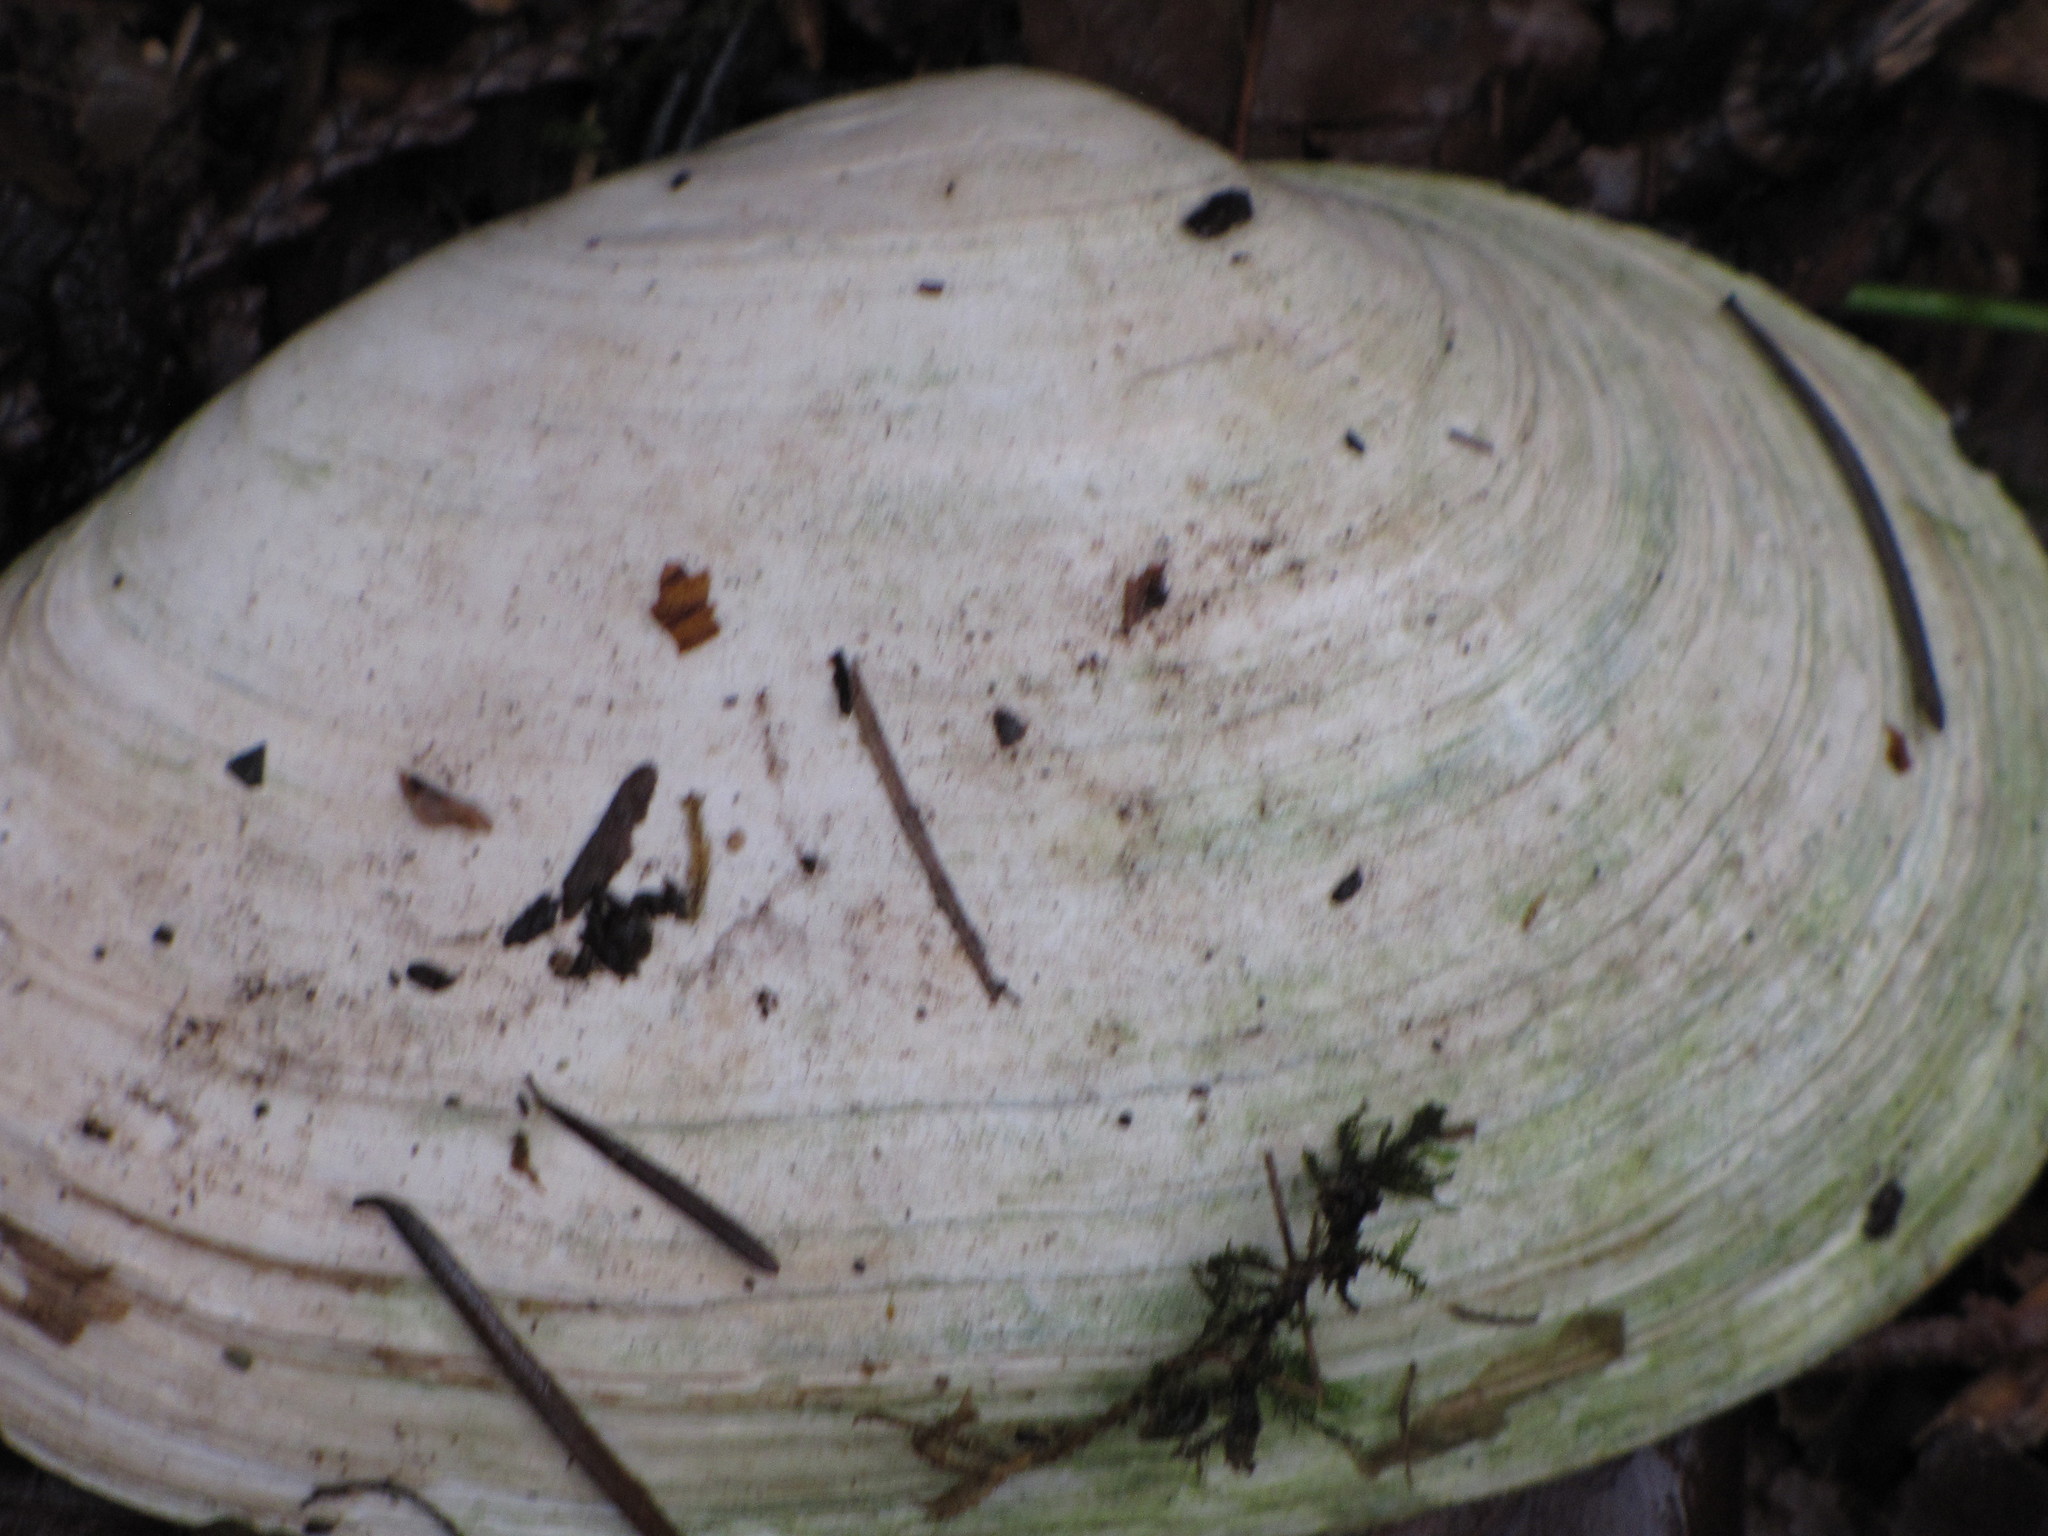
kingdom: Animalia
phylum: Mollusca
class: Bivalvia
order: Myida
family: Myidae
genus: Mya
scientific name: Mya arenaria
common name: Soft-shelled clam
